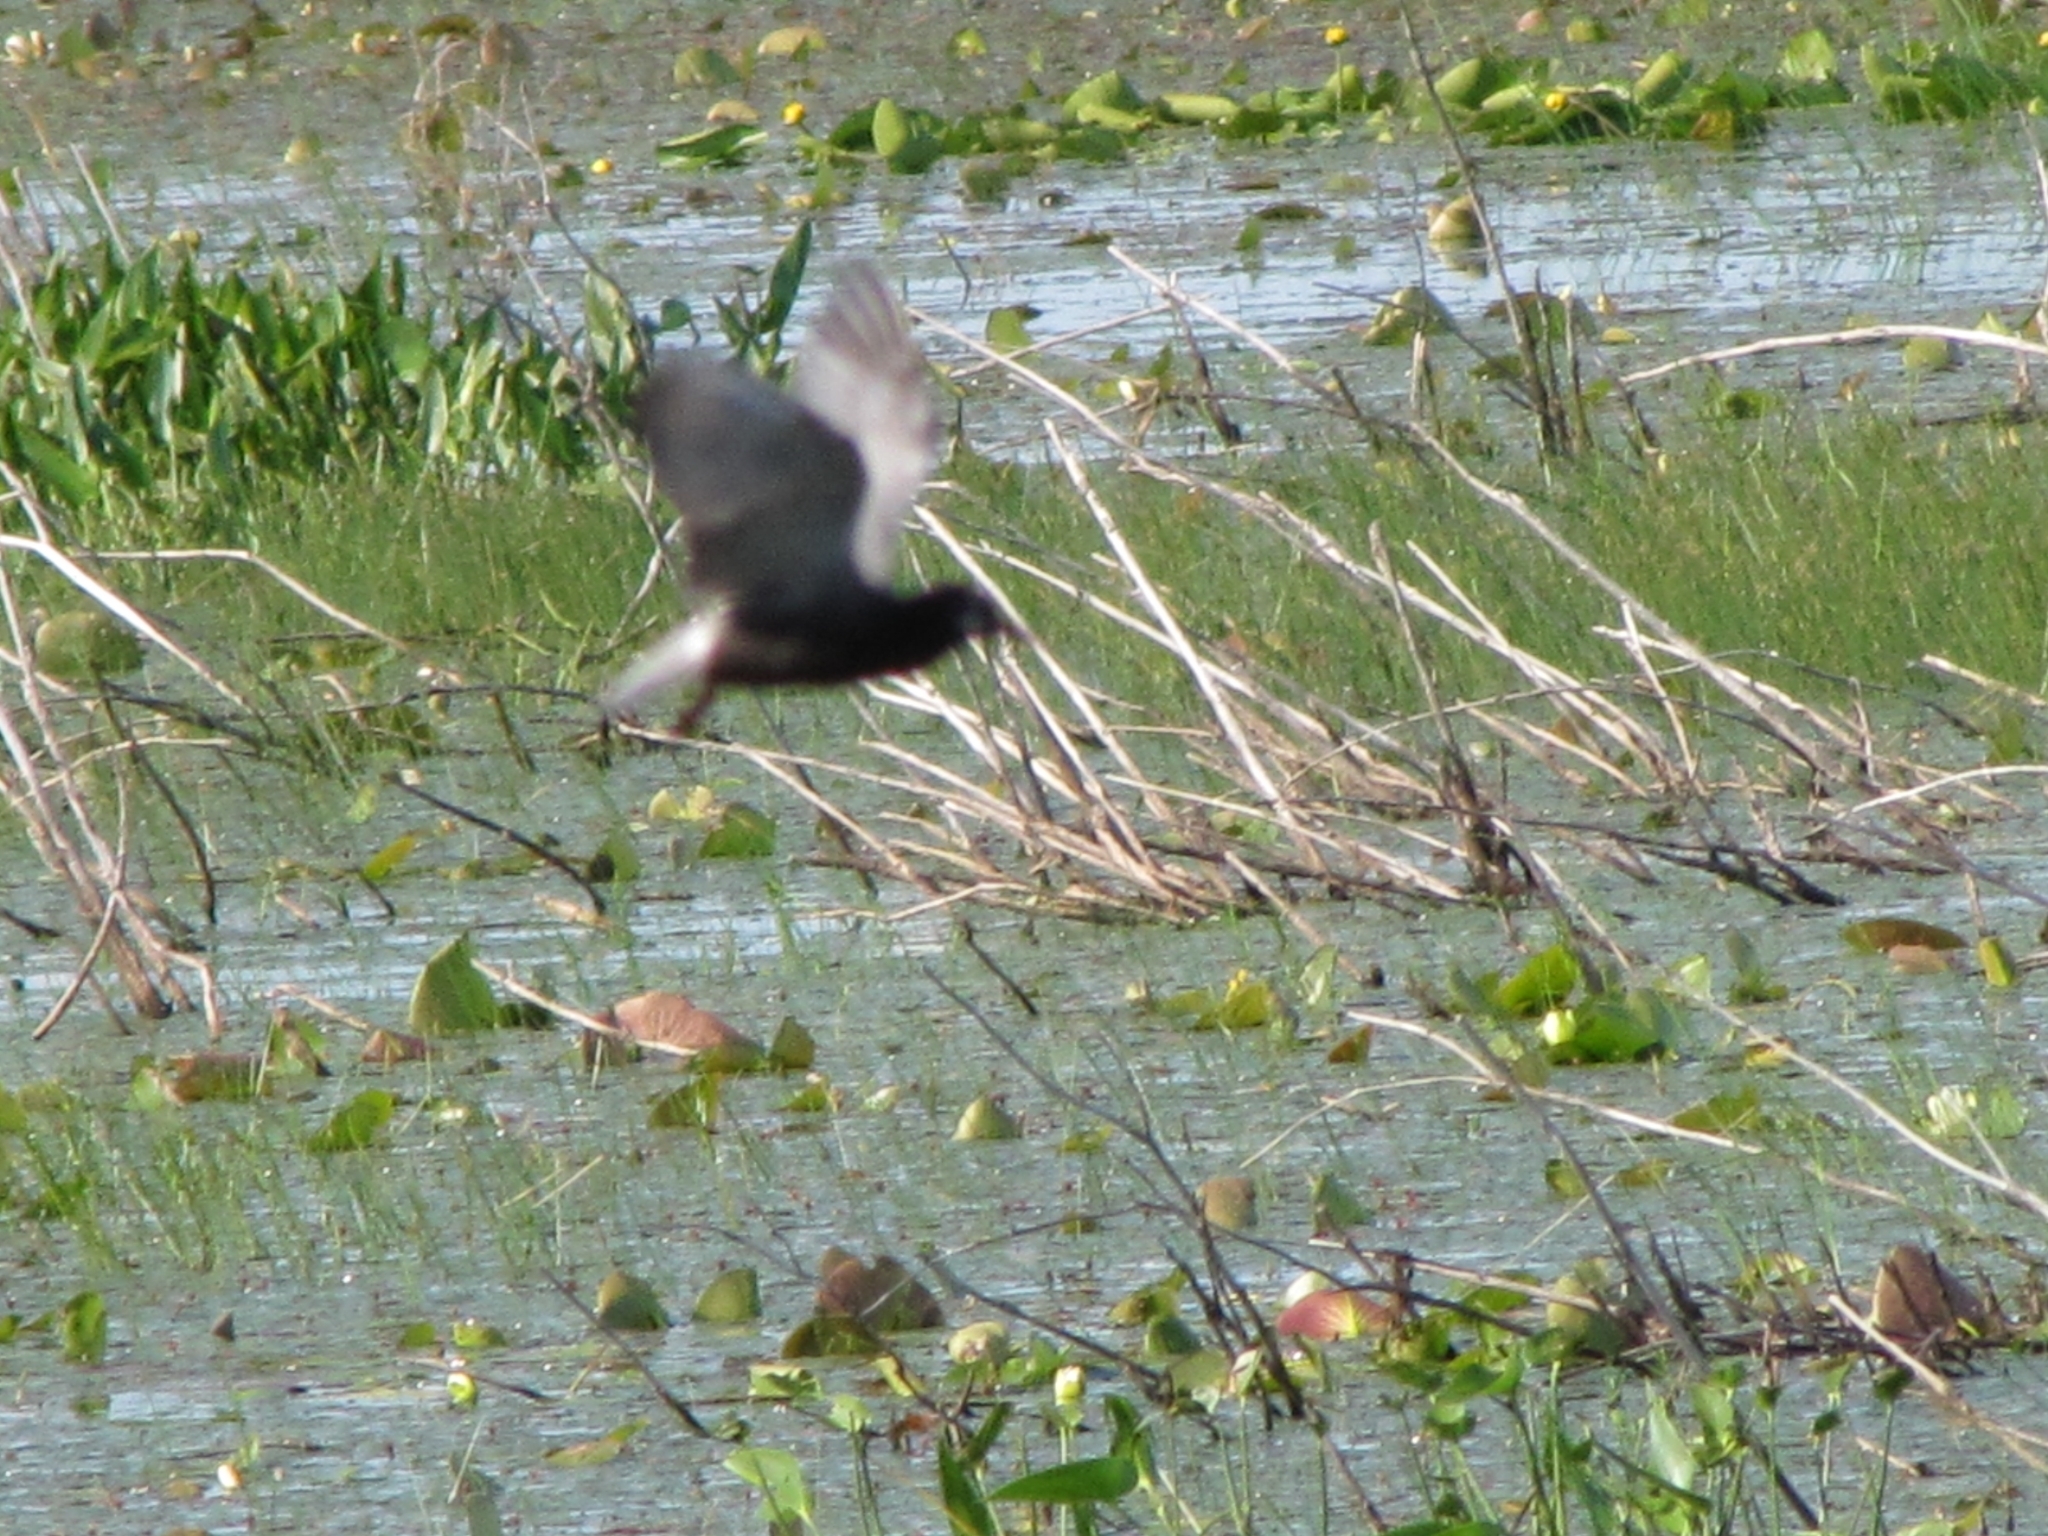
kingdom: Animalia
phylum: Chordata
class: Aves
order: Charadriiformes
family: Laridae
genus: Chlidonias
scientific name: Chlidonias niger
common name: Black tern
